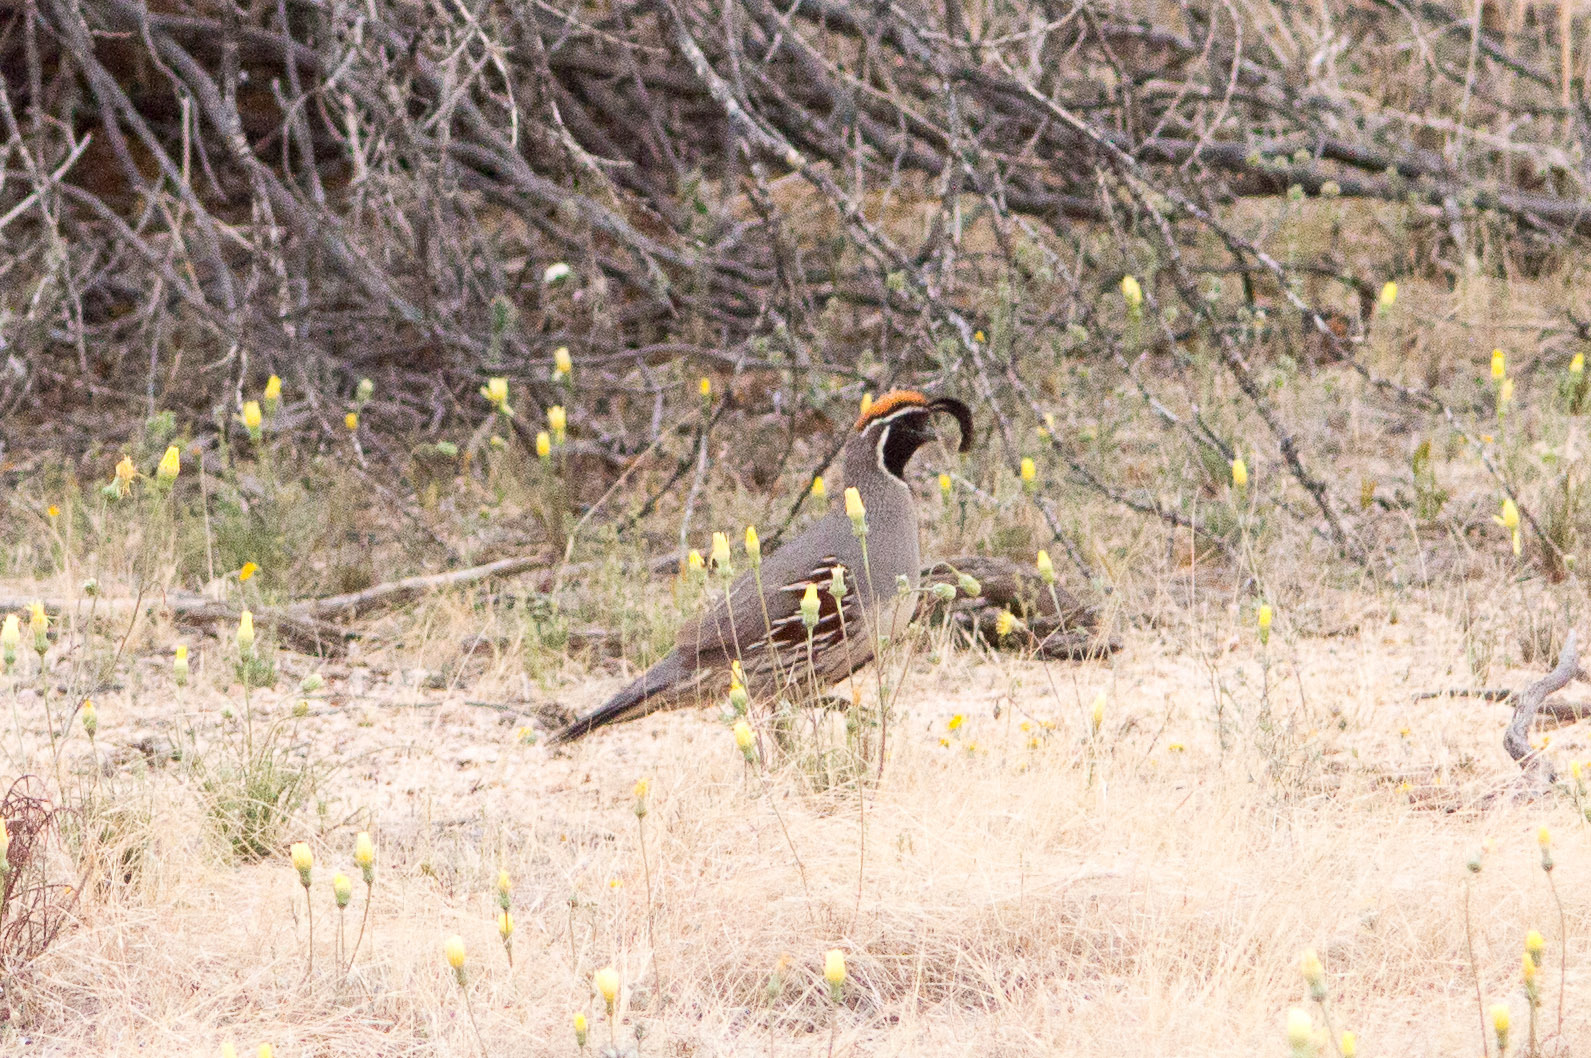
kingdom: Animalia
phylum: Chordata
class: Aves
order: Galliformes
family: Odontophoridae
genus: Callipepla
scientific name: Callipepla gambelii
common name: Gambel's quail
